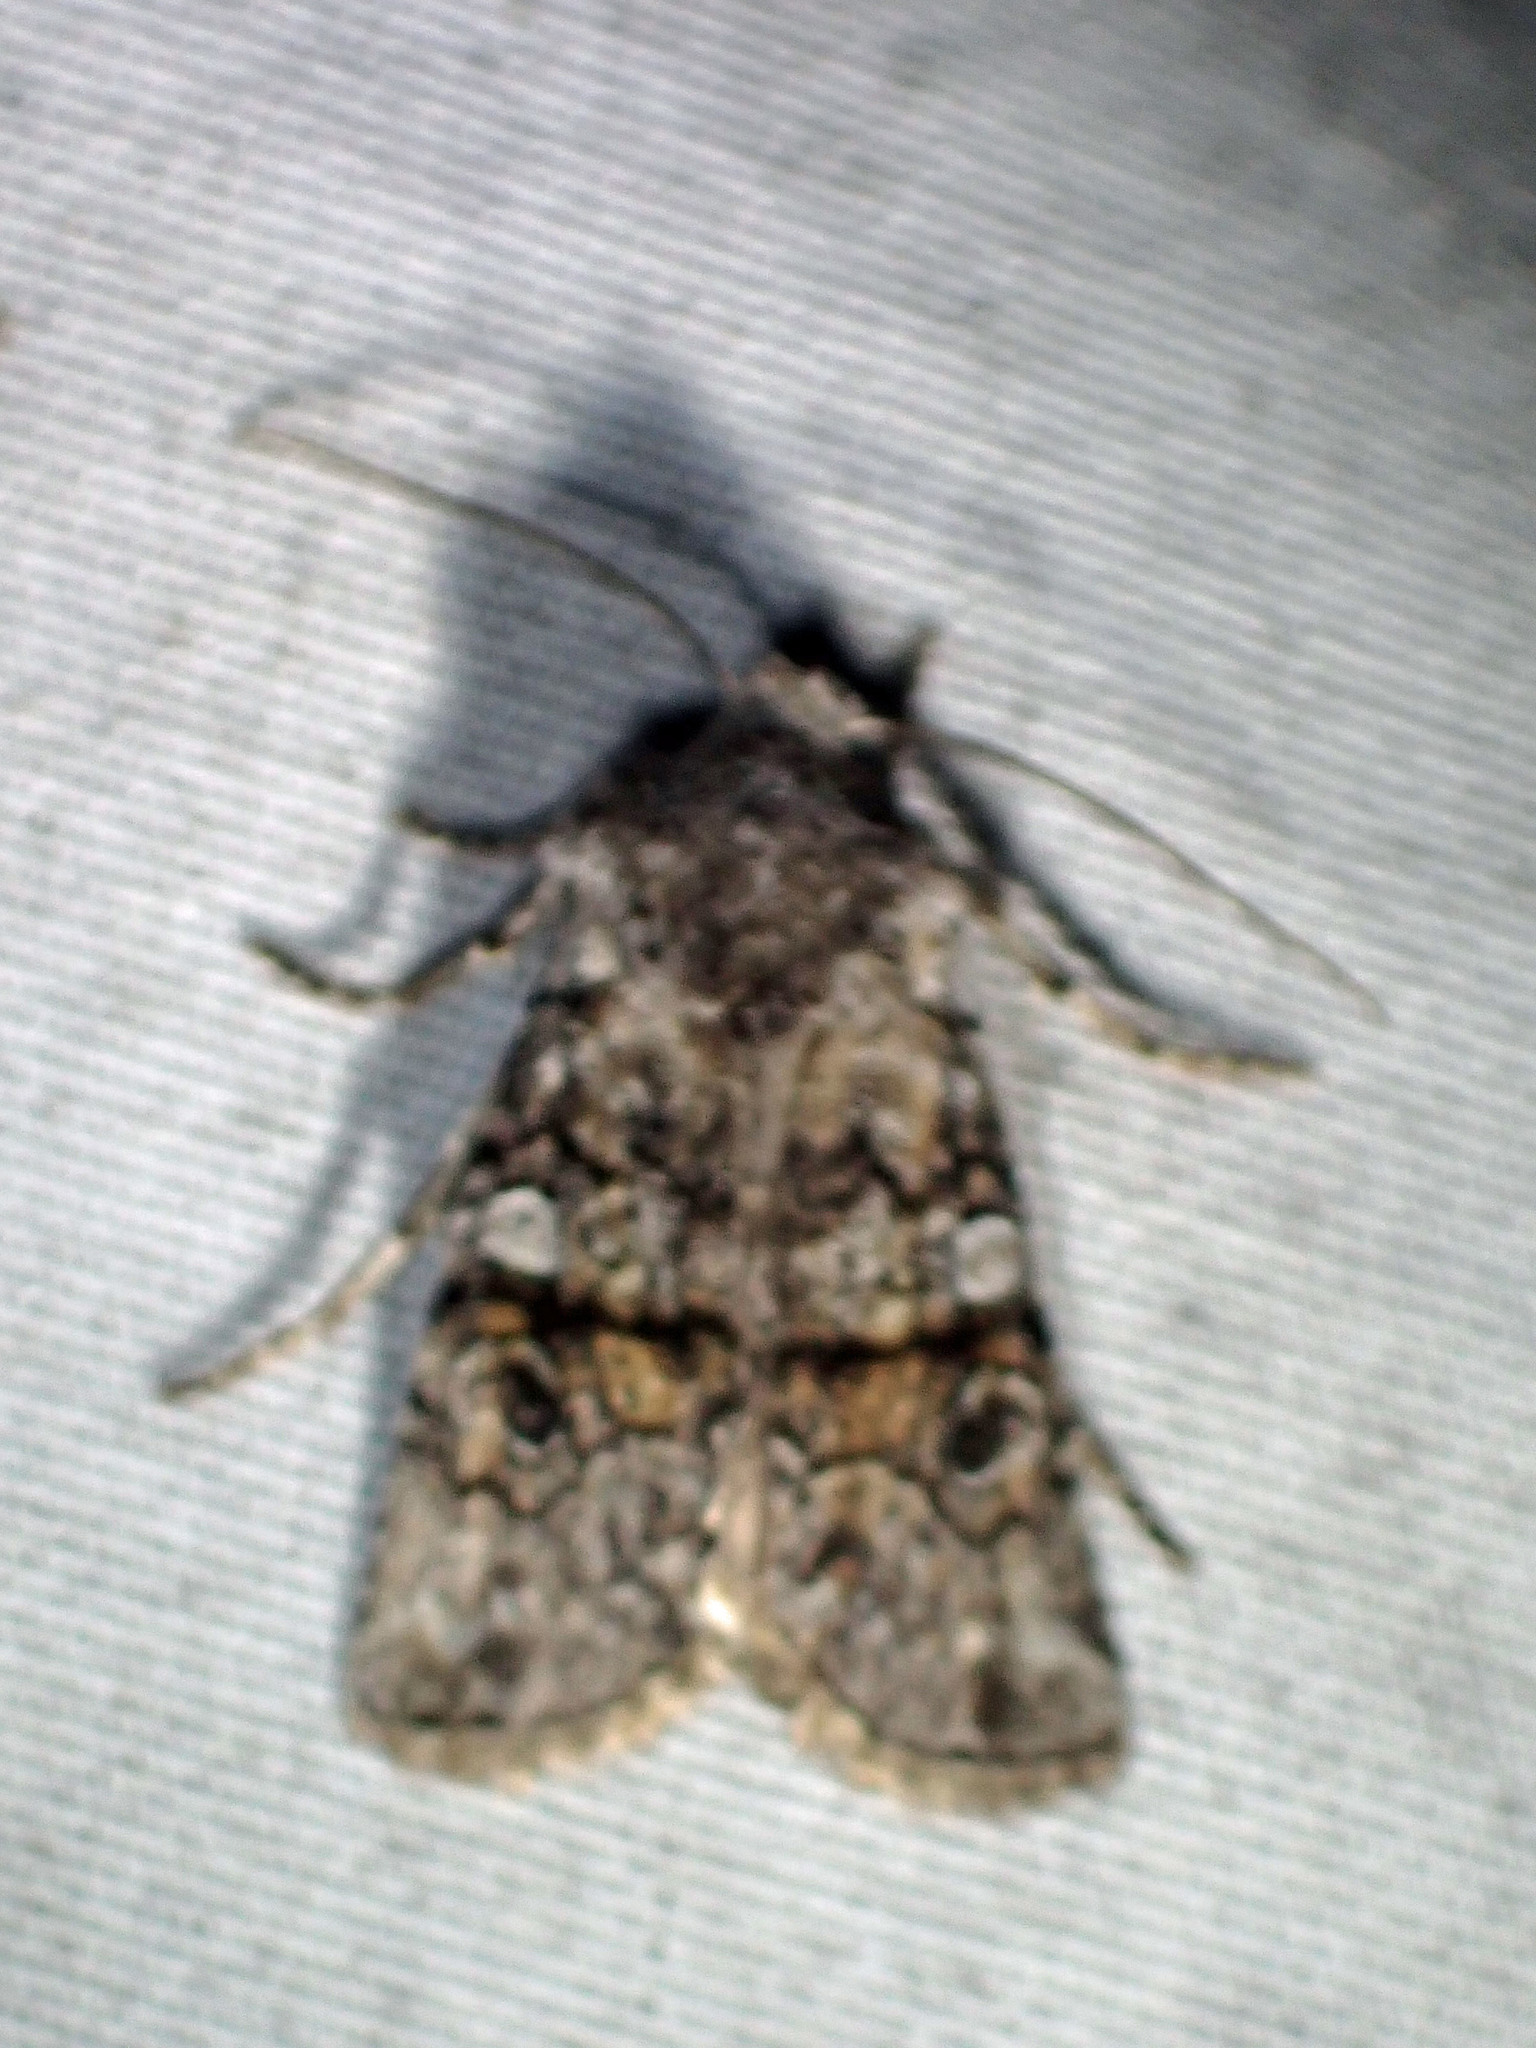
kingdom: Animalia
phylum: Arthropoda
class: Insecta
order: Lepidoptera
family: Noctuidae
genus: Litholomia
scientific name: Litholomia napaea
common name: False pinion moth
